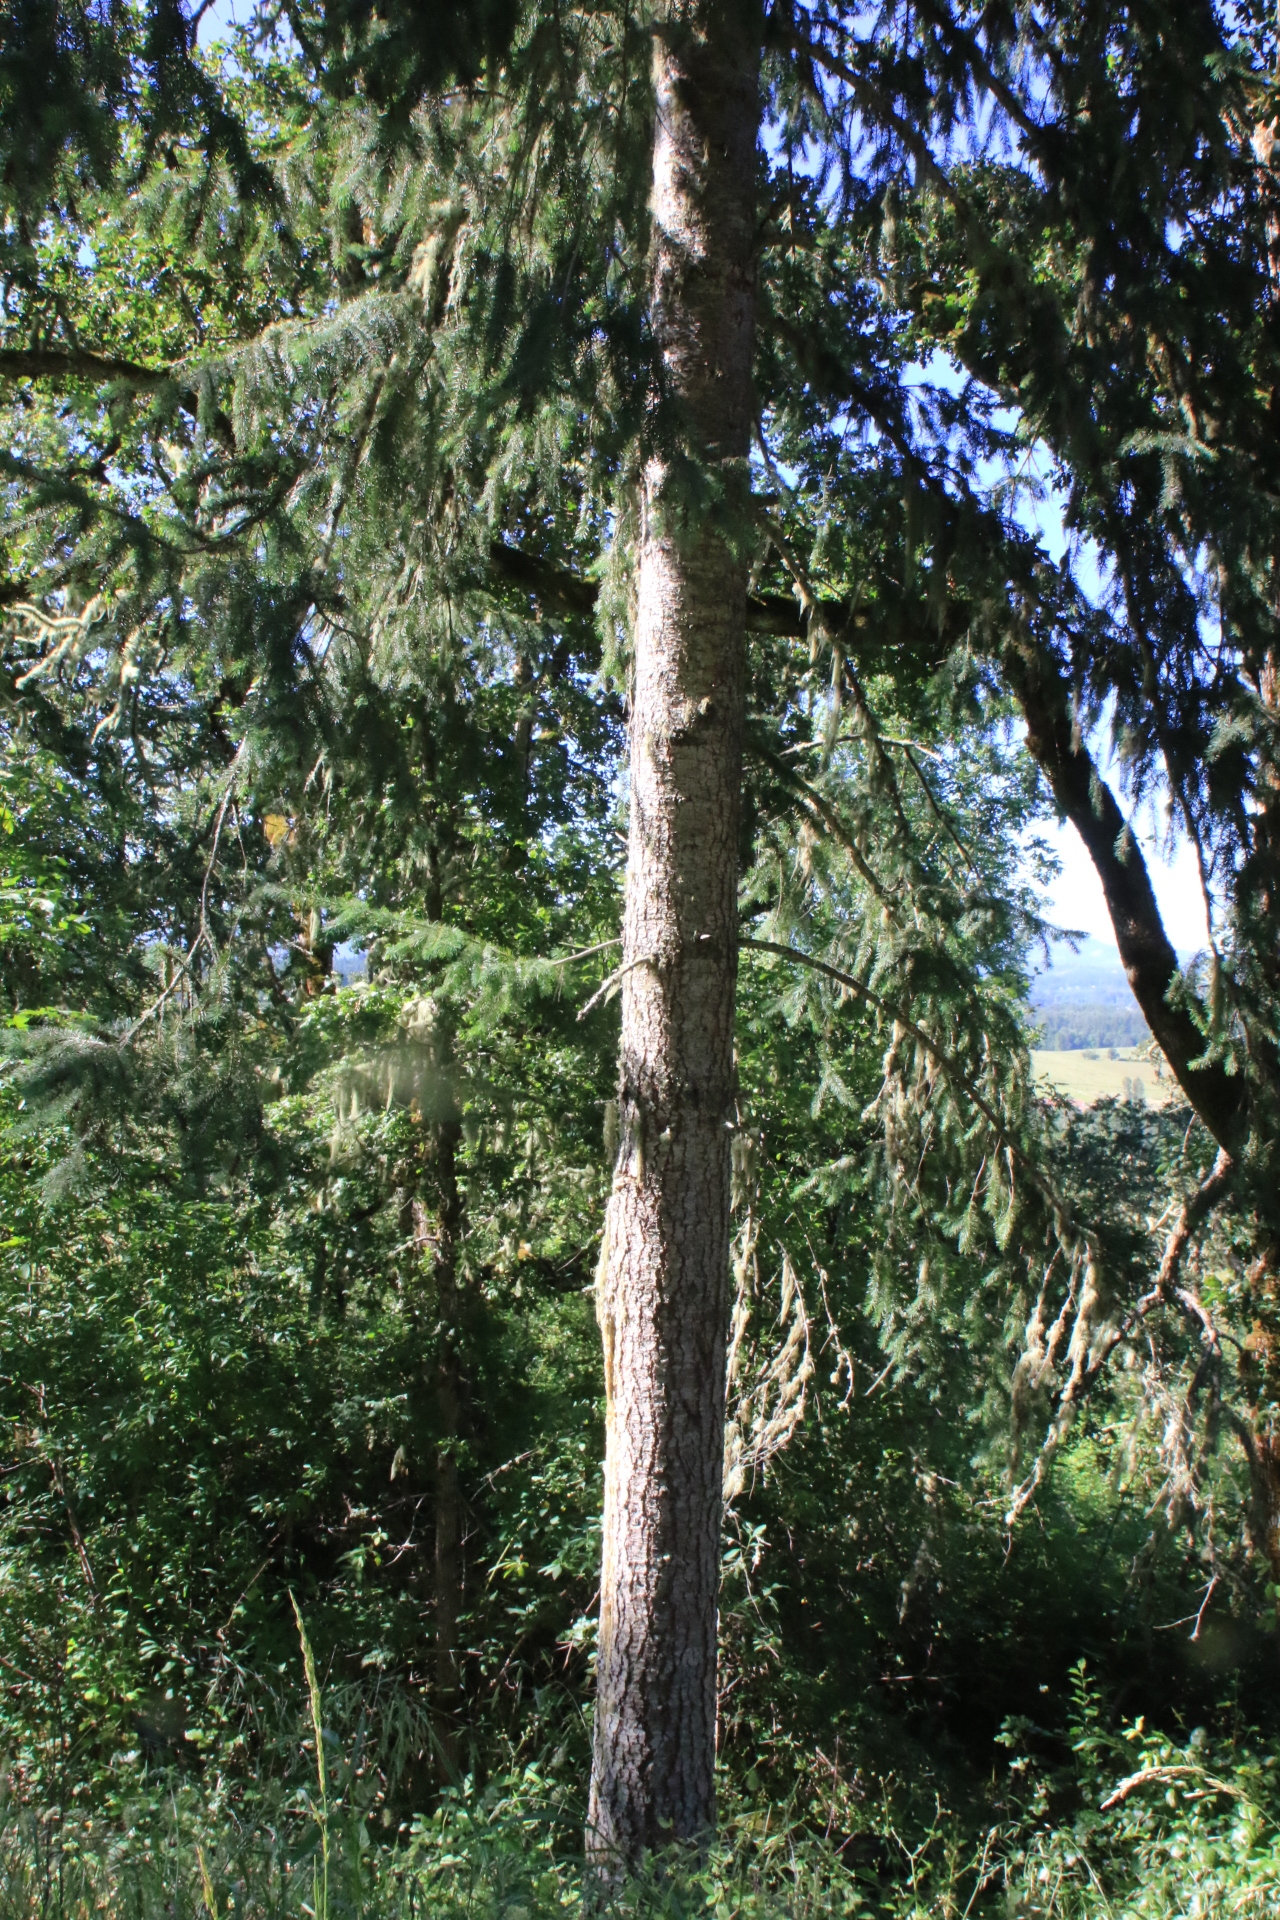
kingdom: Plantae
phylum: Tracheophyta
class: Pinopsida
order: Pinales
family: Pinaceae
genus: Pseudotsuga
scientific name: Pseudotsuga menziesii
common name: Douglas fir
